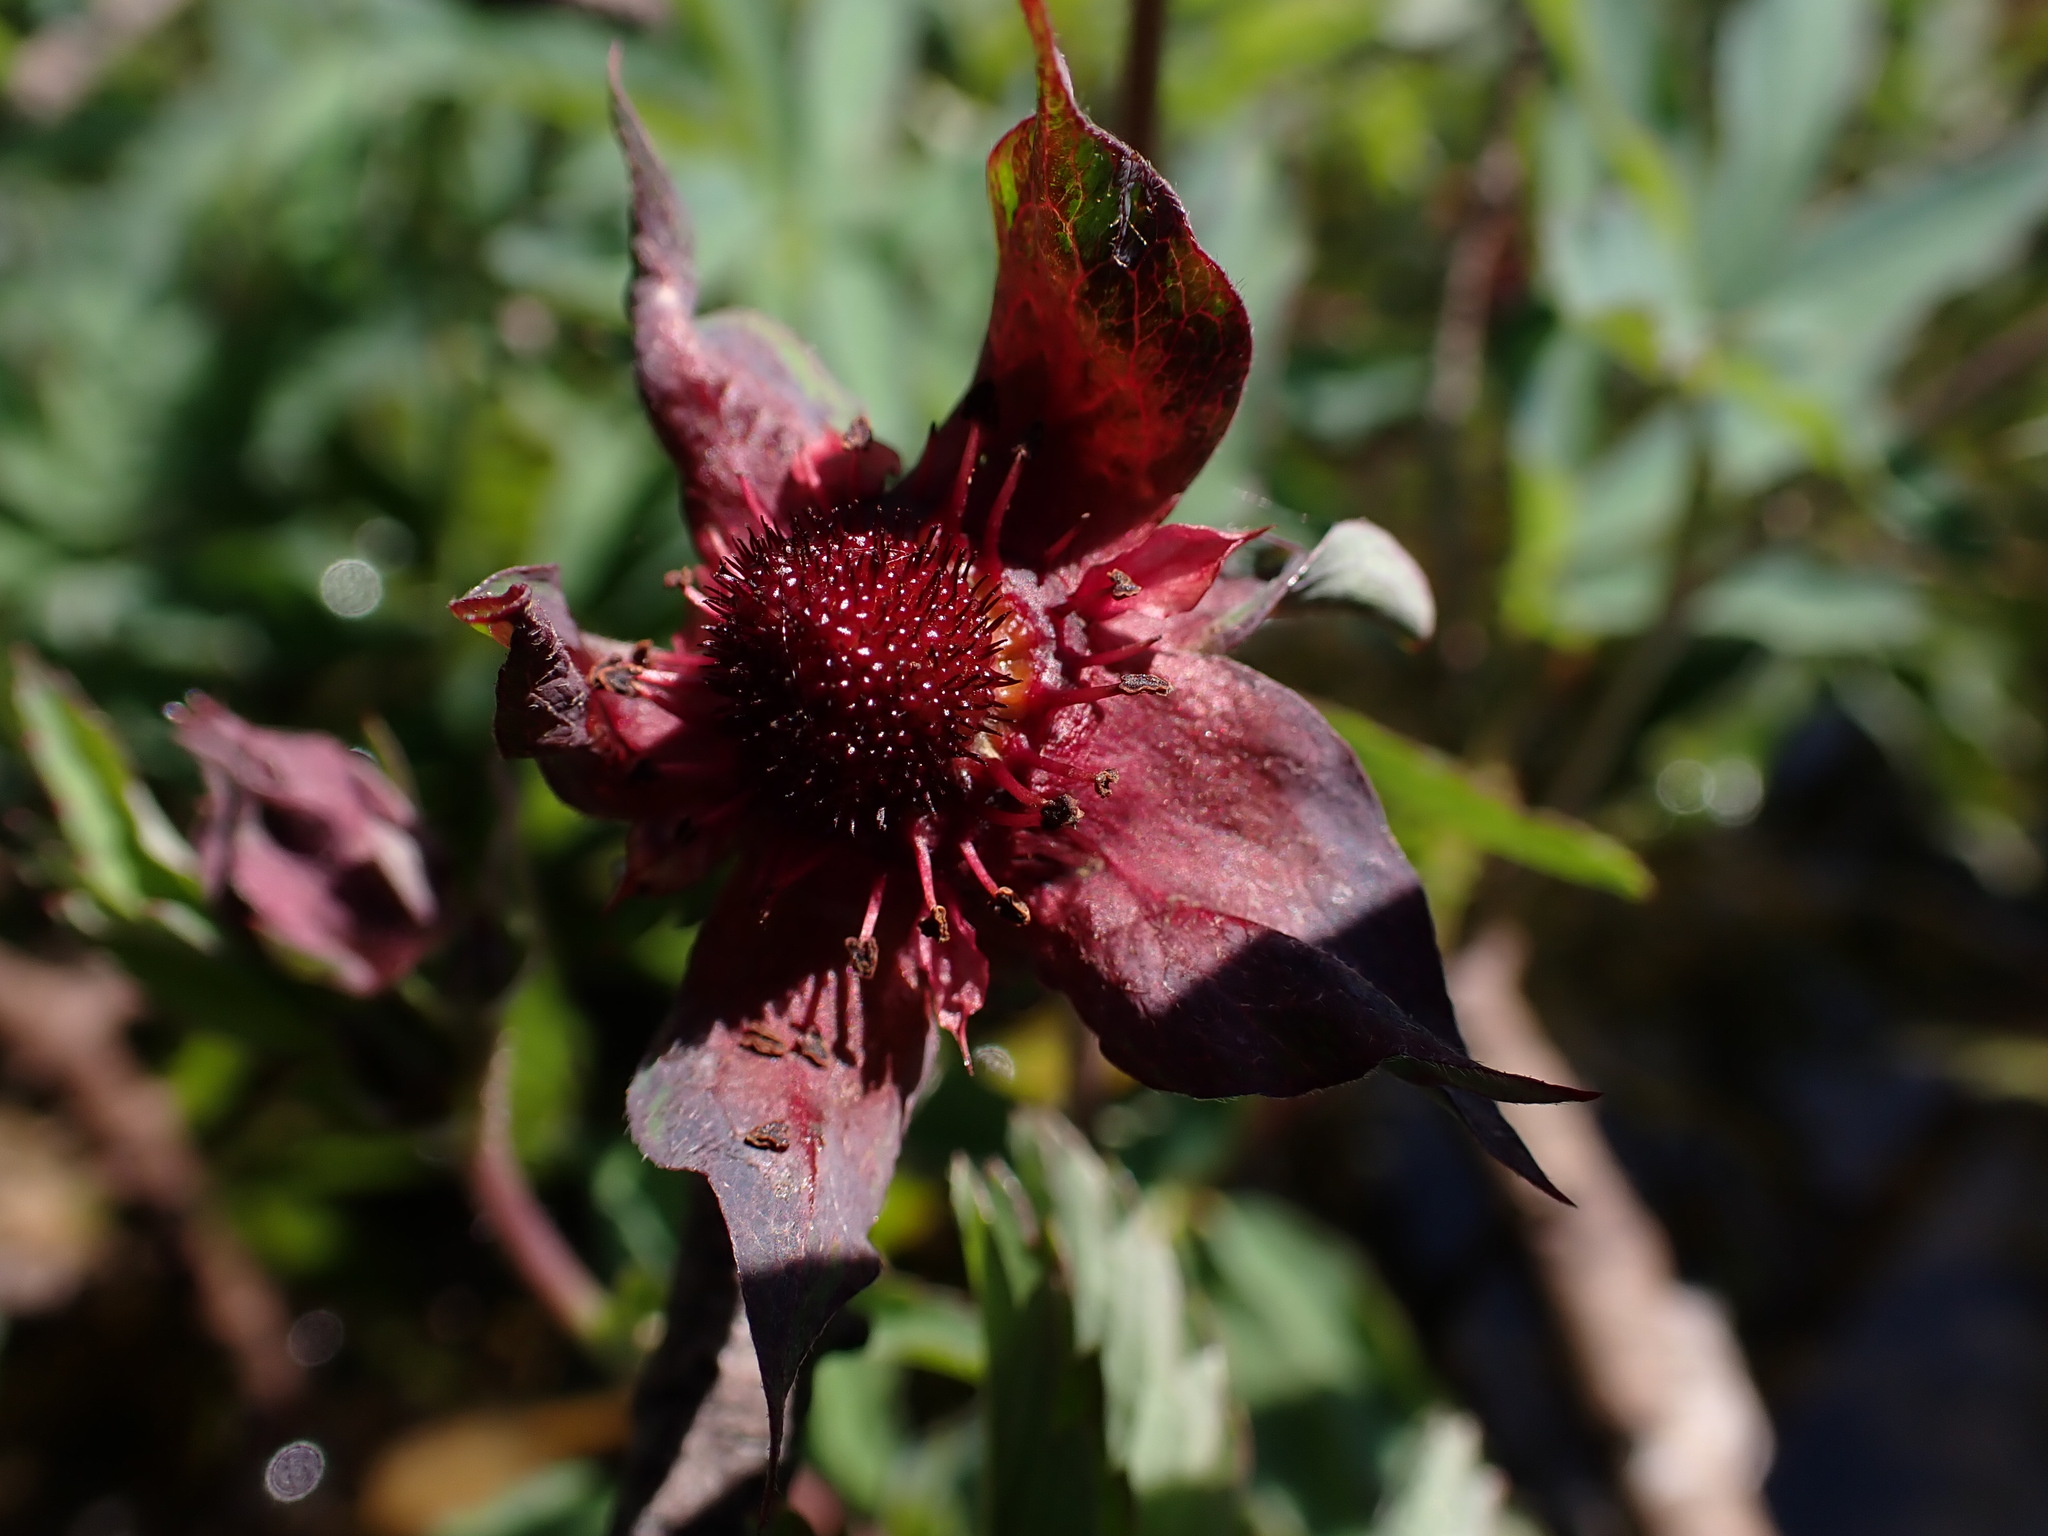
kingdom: Plantae
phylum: Tracheophyta
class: Magnoliopsida
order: Rosales
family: Rosaceae
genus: Comarum
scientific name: Comarum palustre
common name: Marsh cinquefoil
